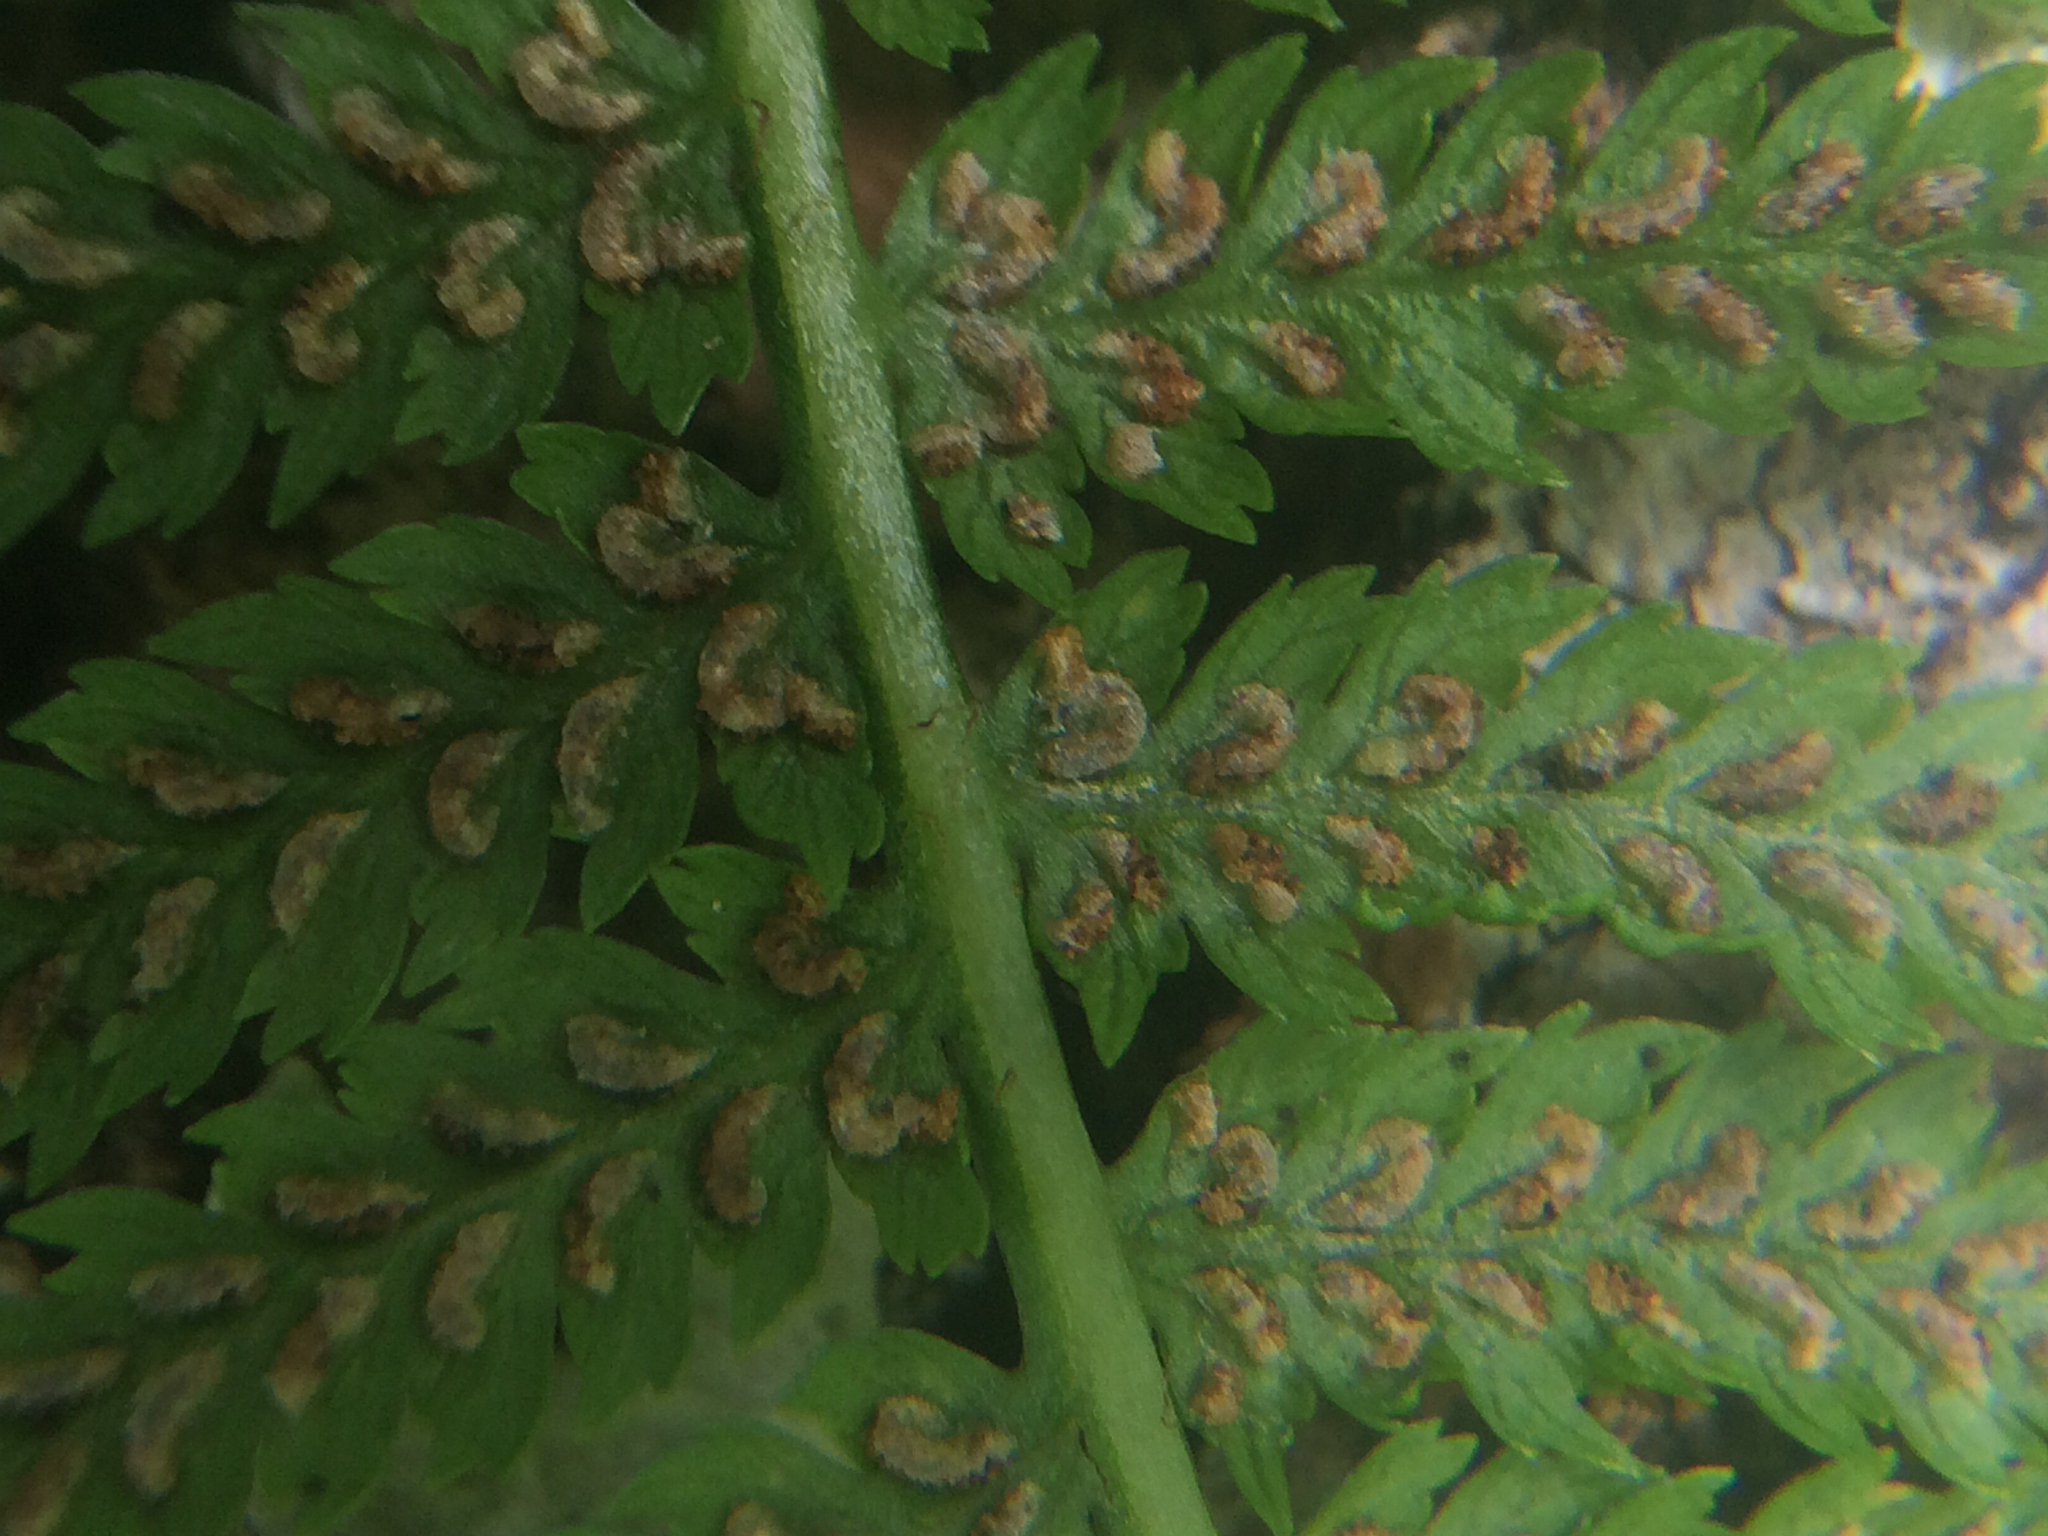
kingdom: Plantae
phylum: Tracheophyta
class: Polypodiopsida
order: Polypodiales
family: Athyriaceae
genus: Athyrium
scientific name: Athyrium angustum
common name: Northern lady fern
